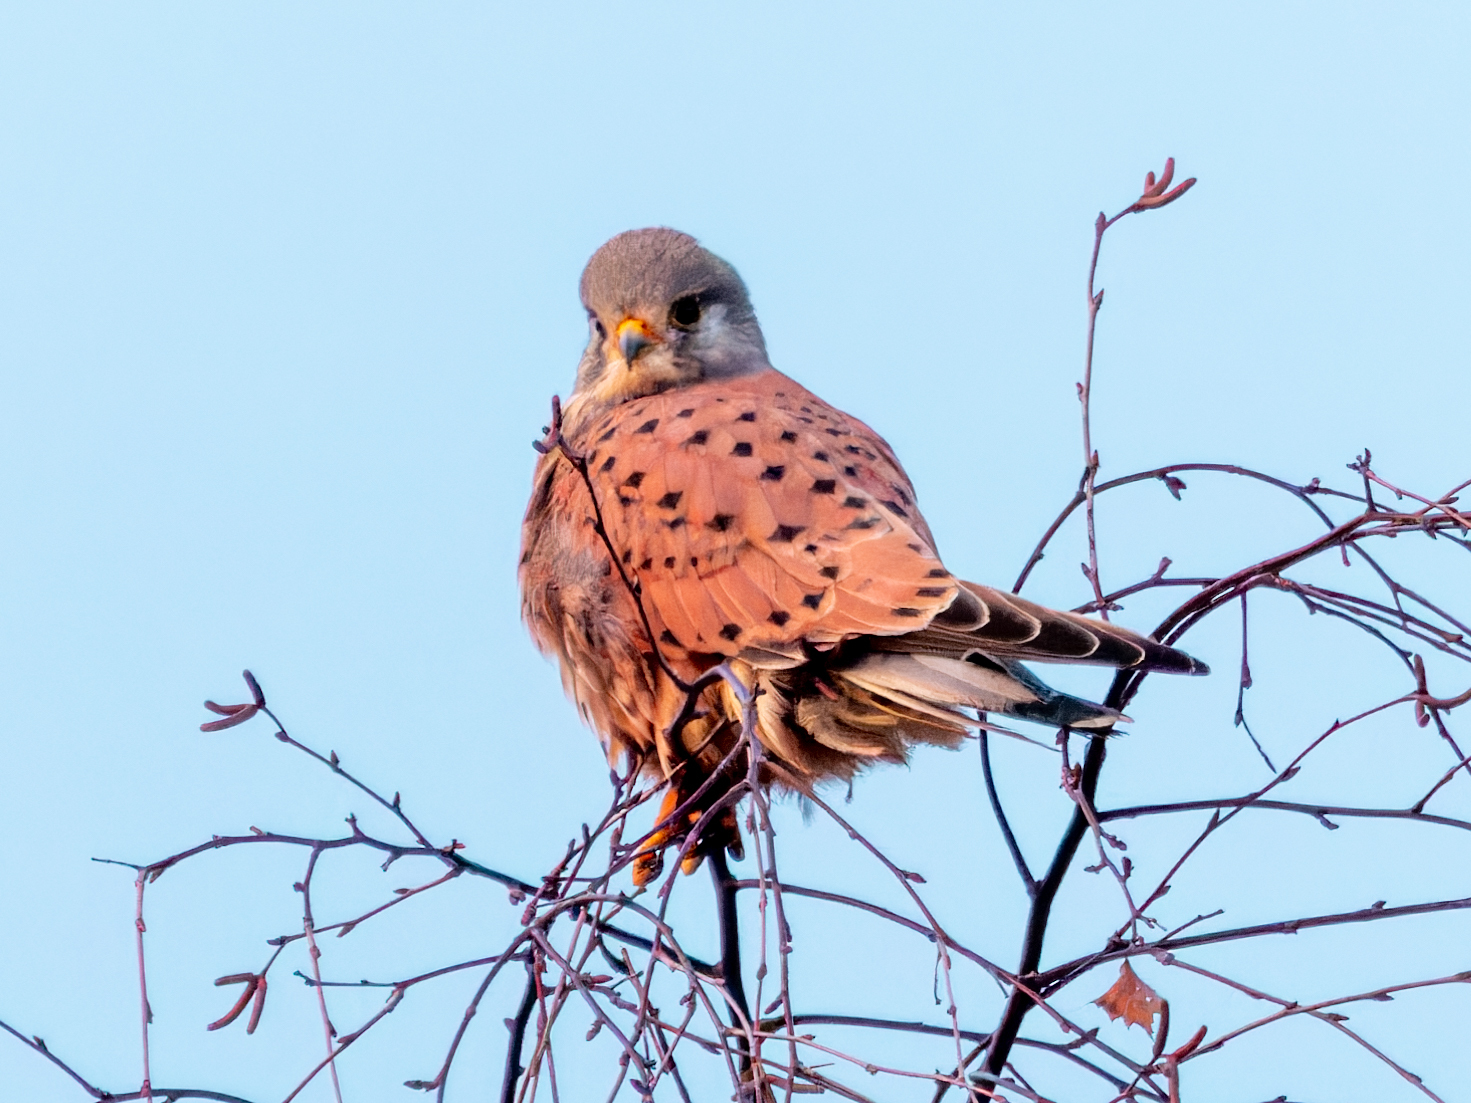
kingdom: Animalia
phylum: Chordata
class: Aves
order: Falconiformes
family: Falconidae
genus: Falco
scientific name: Falco tinnunculus
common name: Common kestrel
